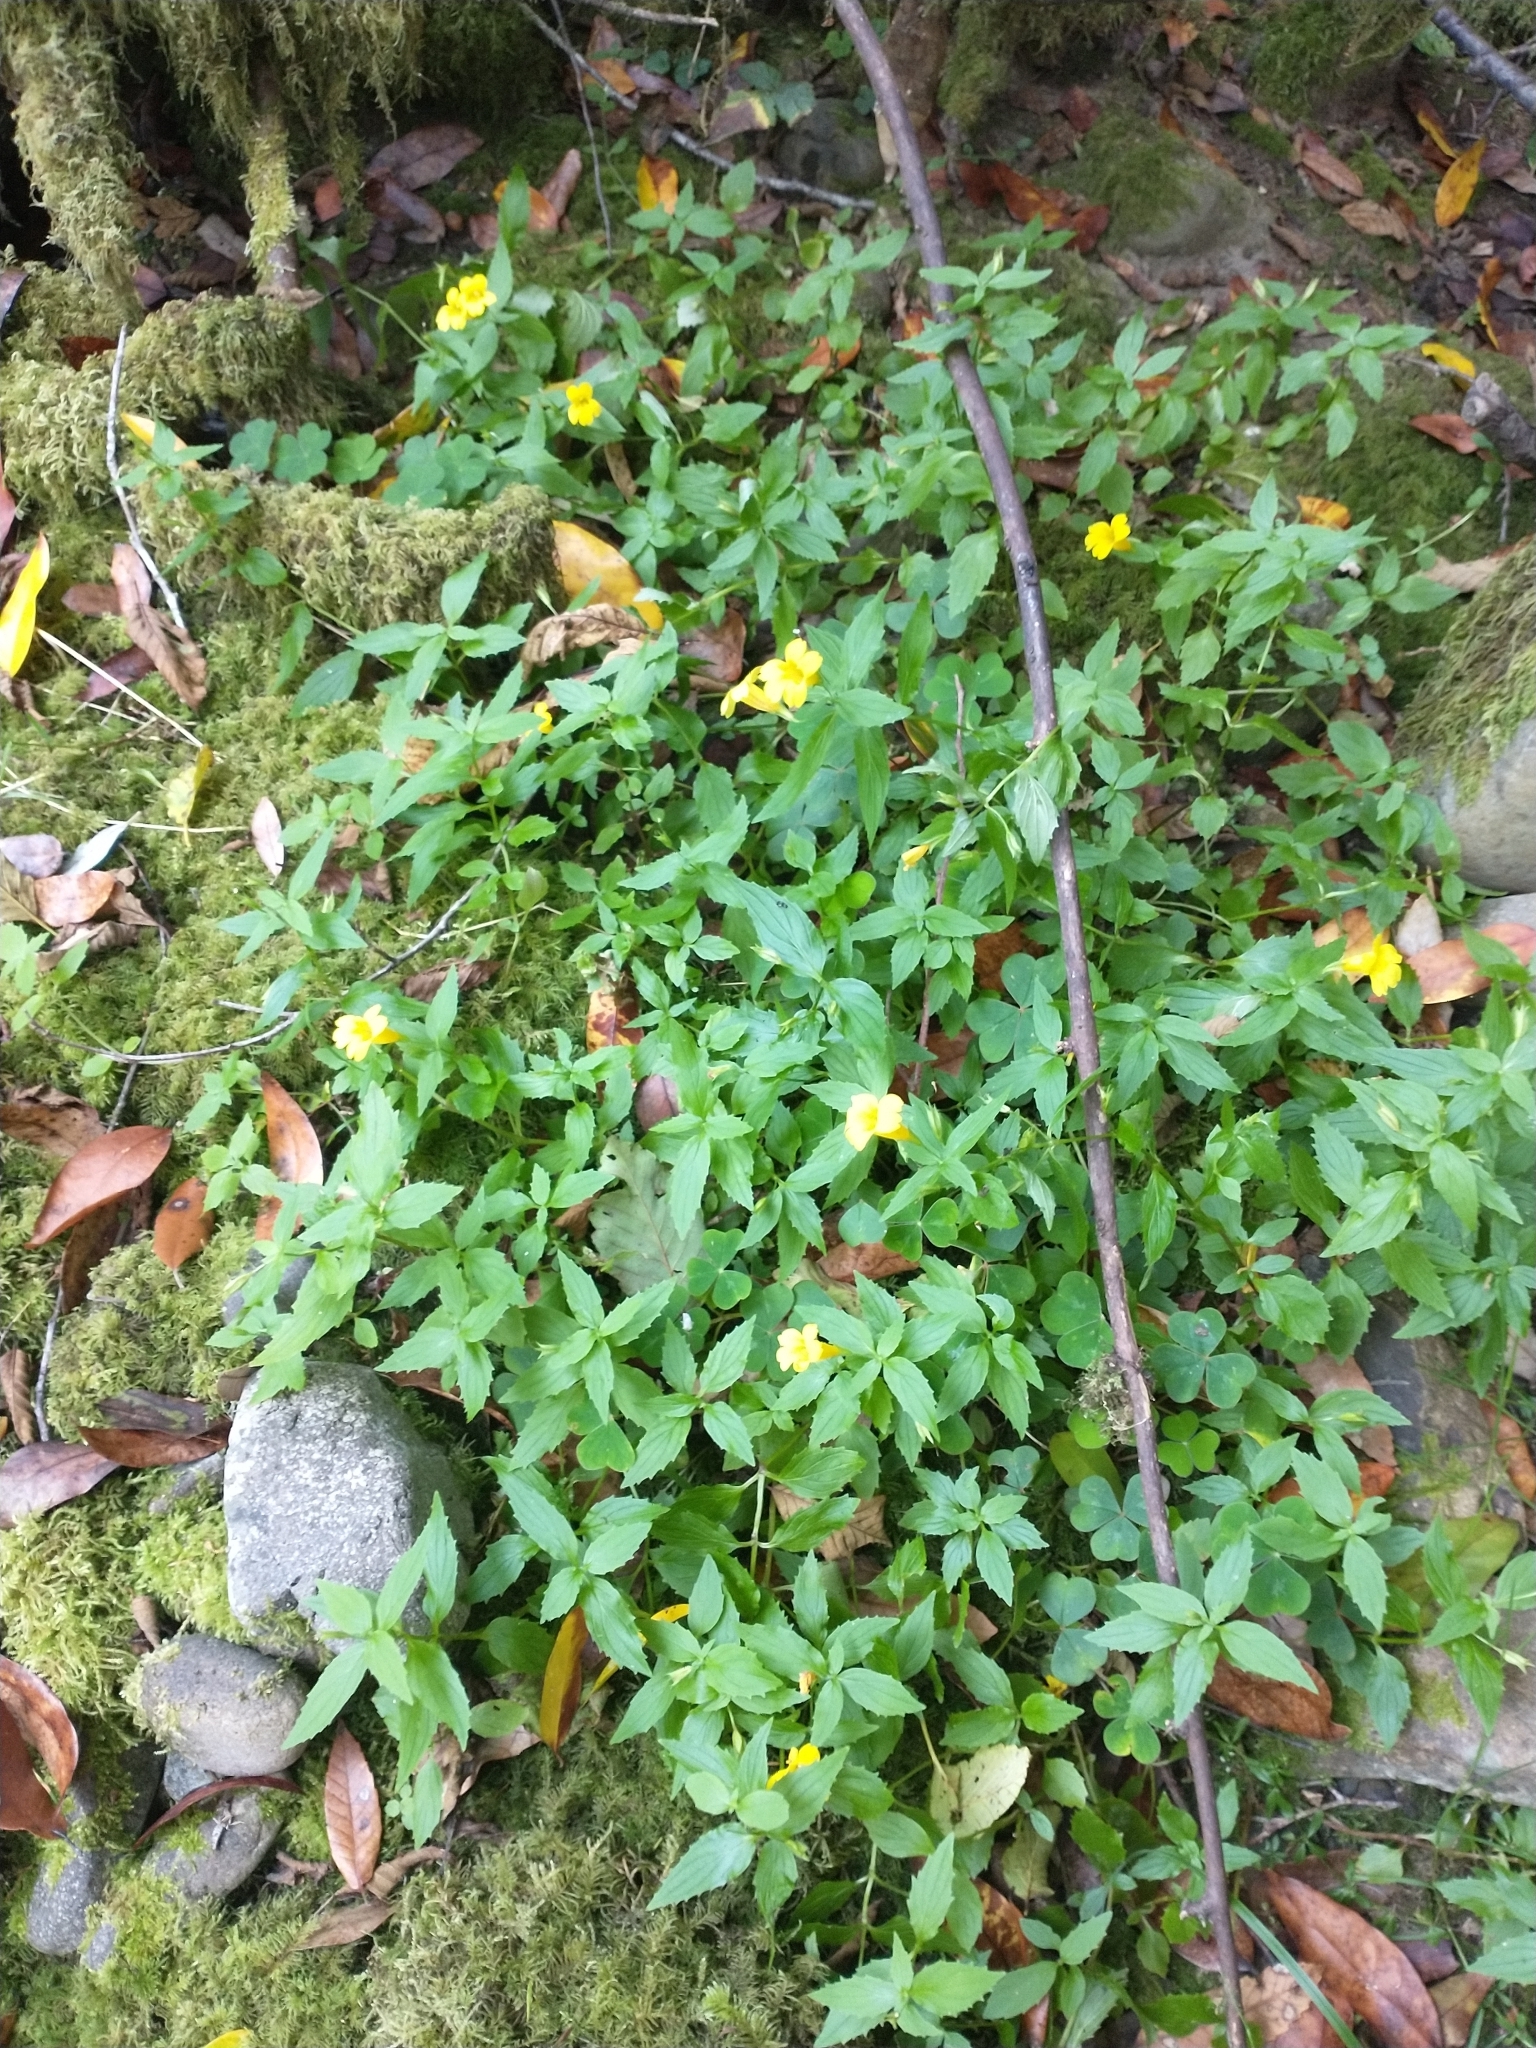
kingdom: Plantae
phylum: Tracheophyta
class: Magnoliopsida
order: Lamiales
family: Phrymaceae
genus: Erythranthe
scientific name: Erythranthe dentata
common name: Coastal monkeyflower
